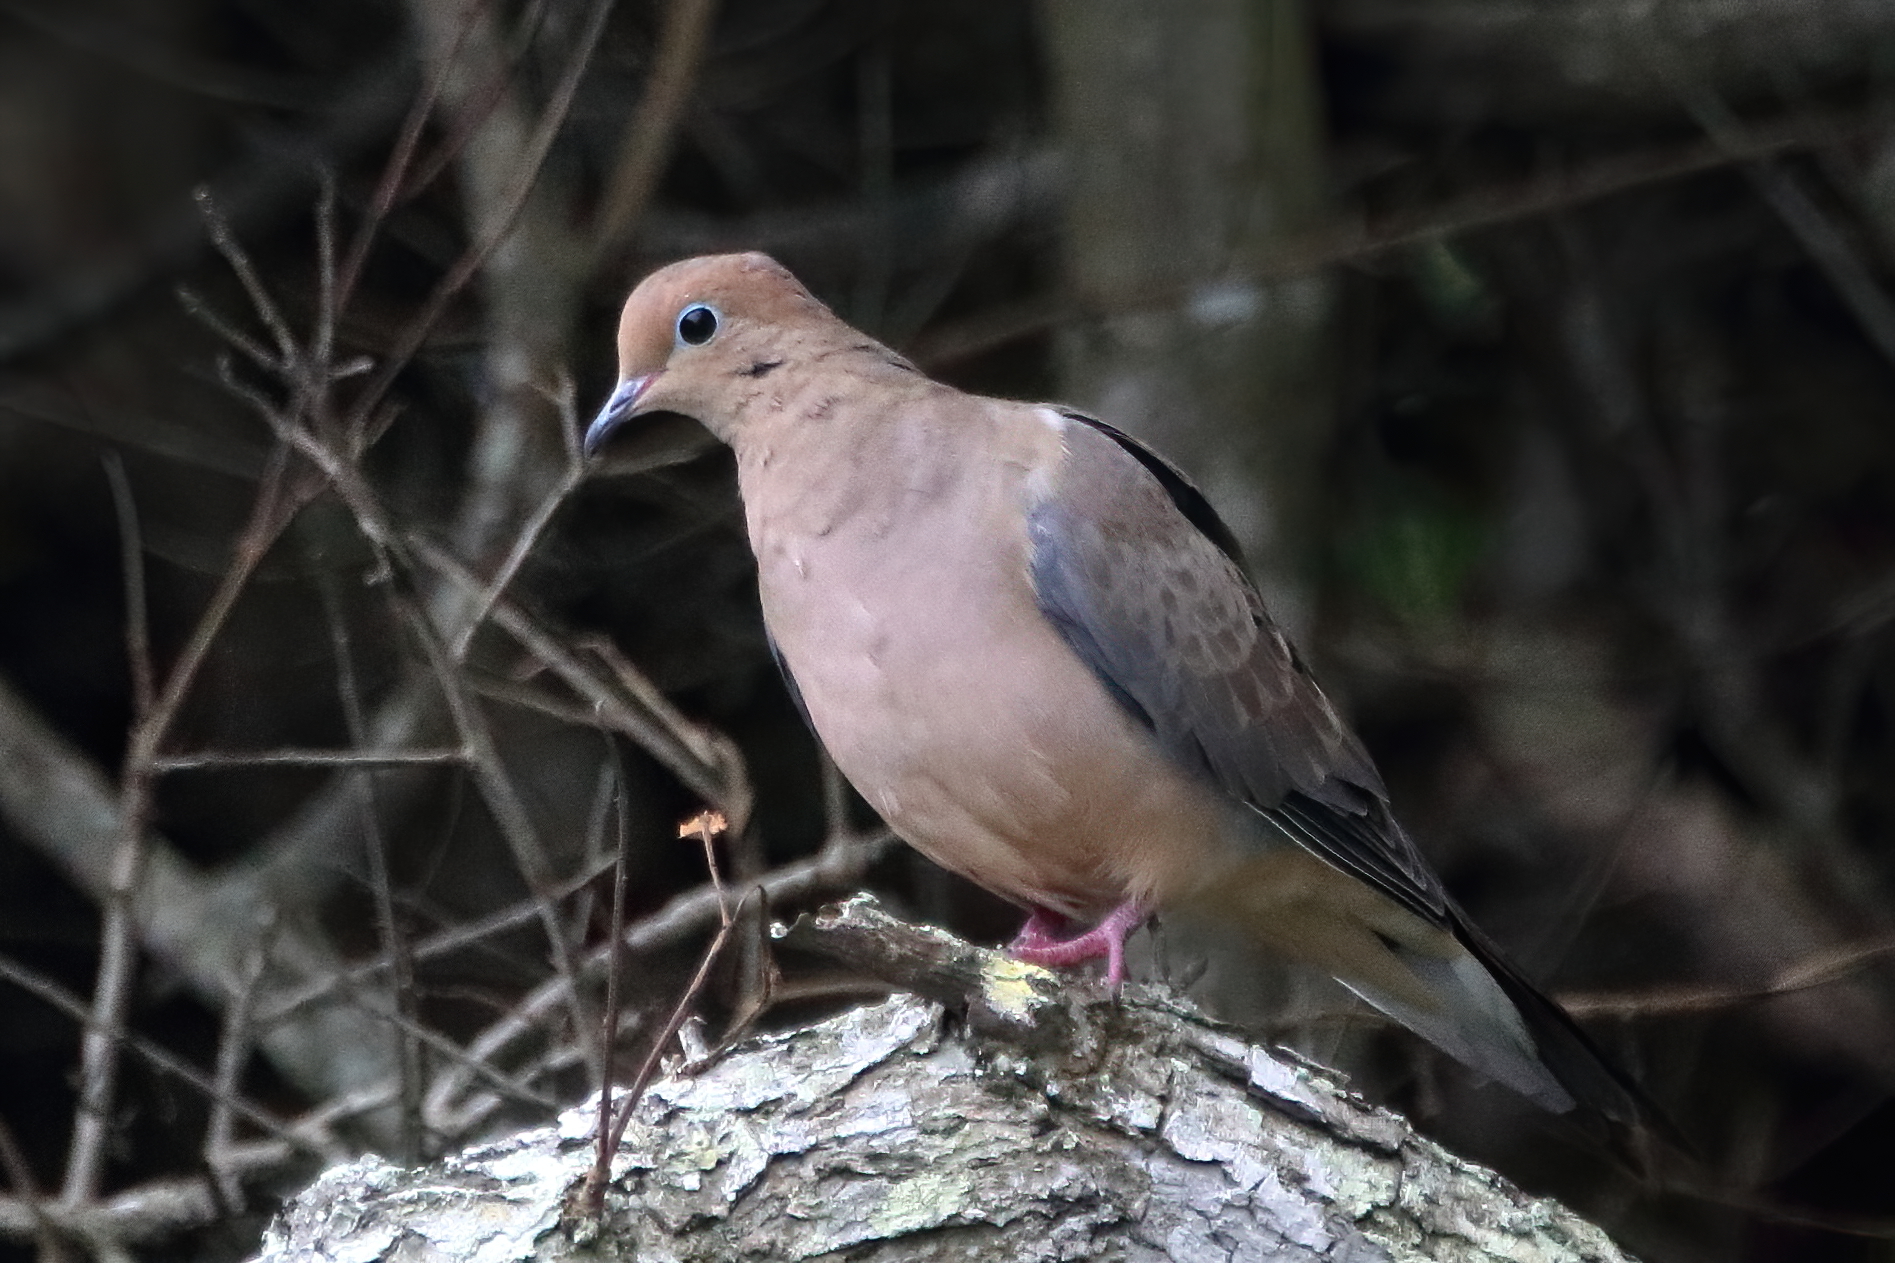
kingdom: Animalia
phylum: Chordata
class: Aves
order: Columbiformes
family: Columbidae
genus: Zenaida
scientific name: Zenaida macroura
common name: Mourning dove
